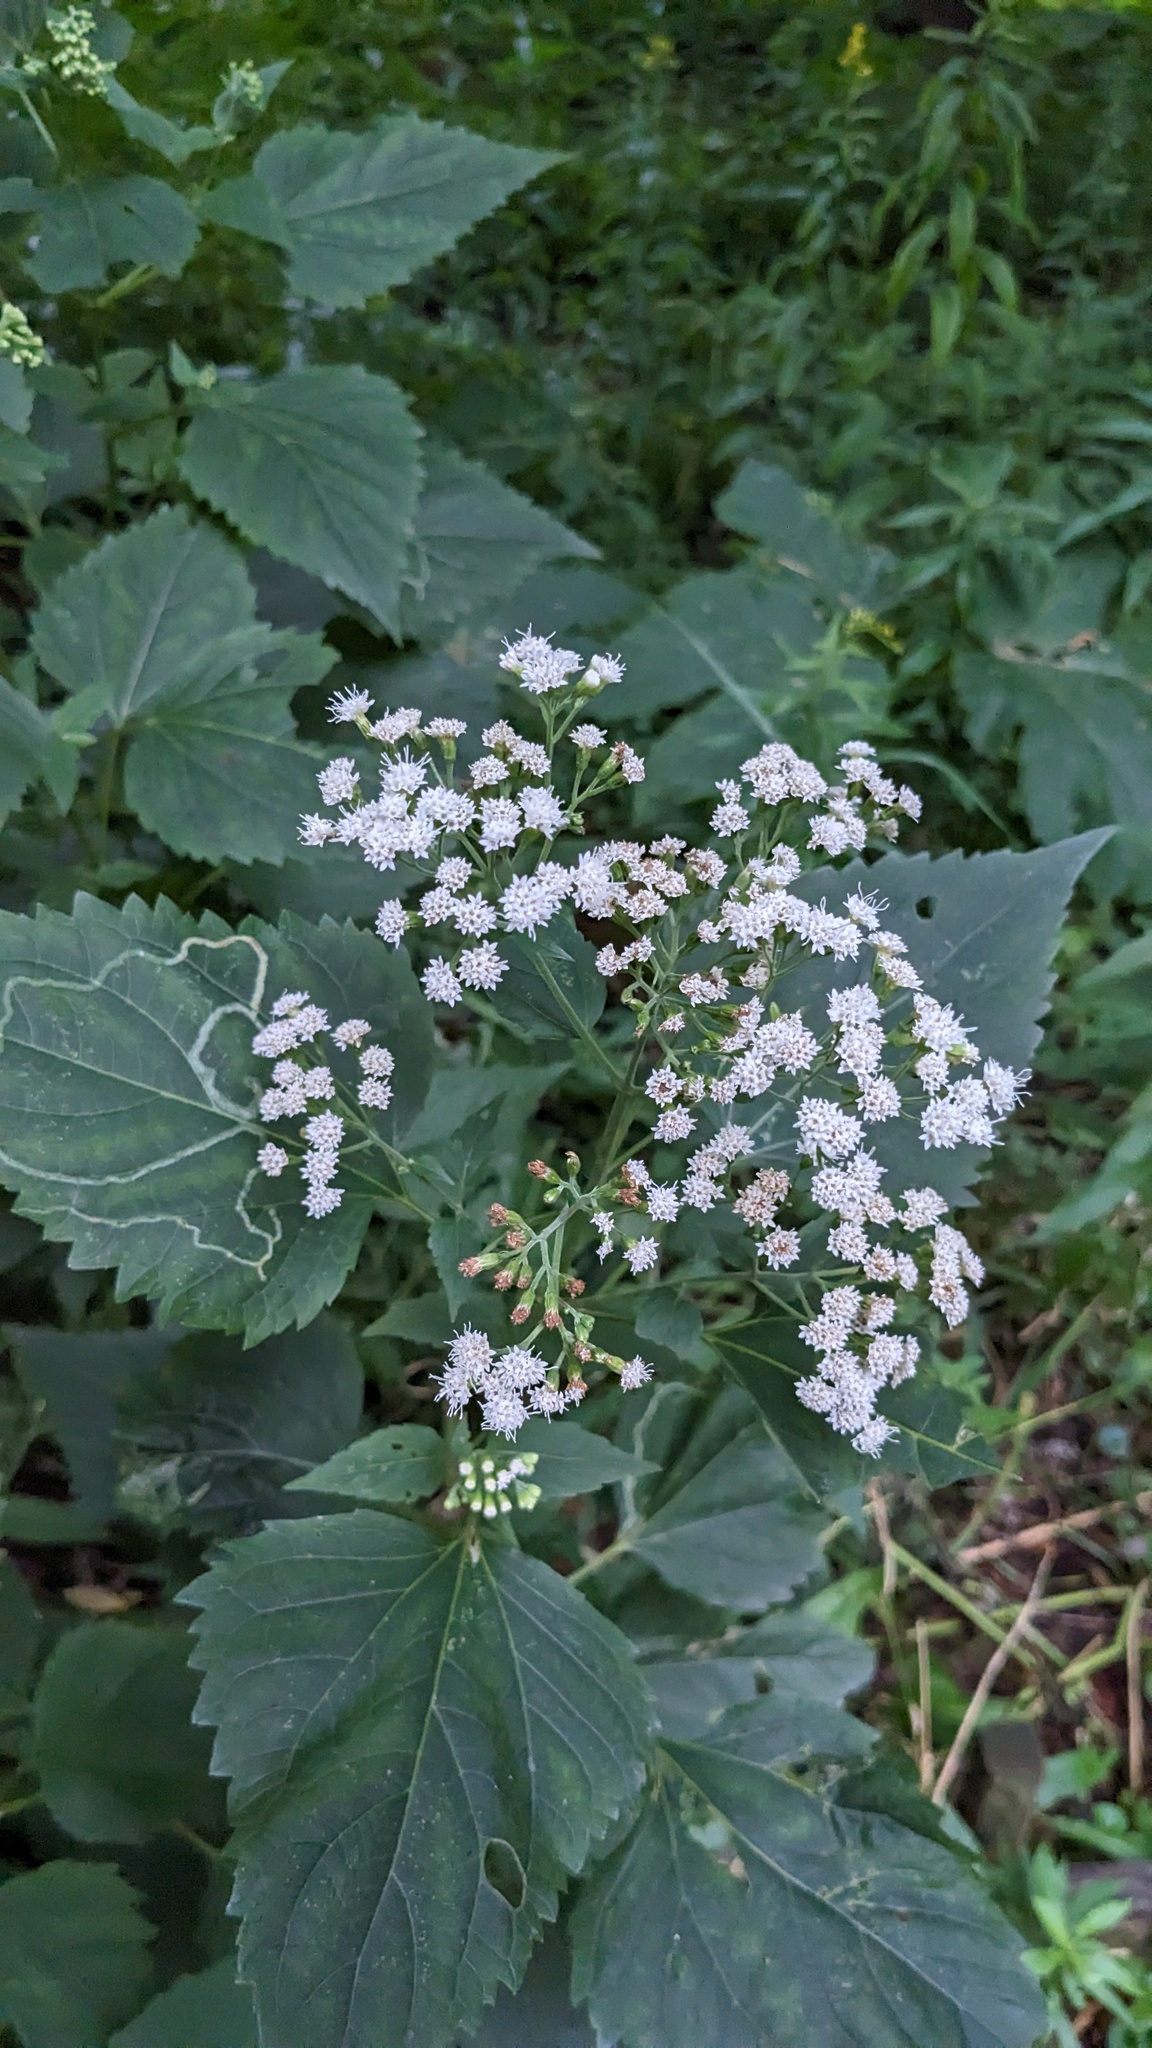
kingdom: Plantae
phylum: Tracheophyta
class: Magnoliopsida
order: Asterales
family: Asteraceae
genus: Ageratina
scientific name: Ageratina altissima
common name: White snakeroot
